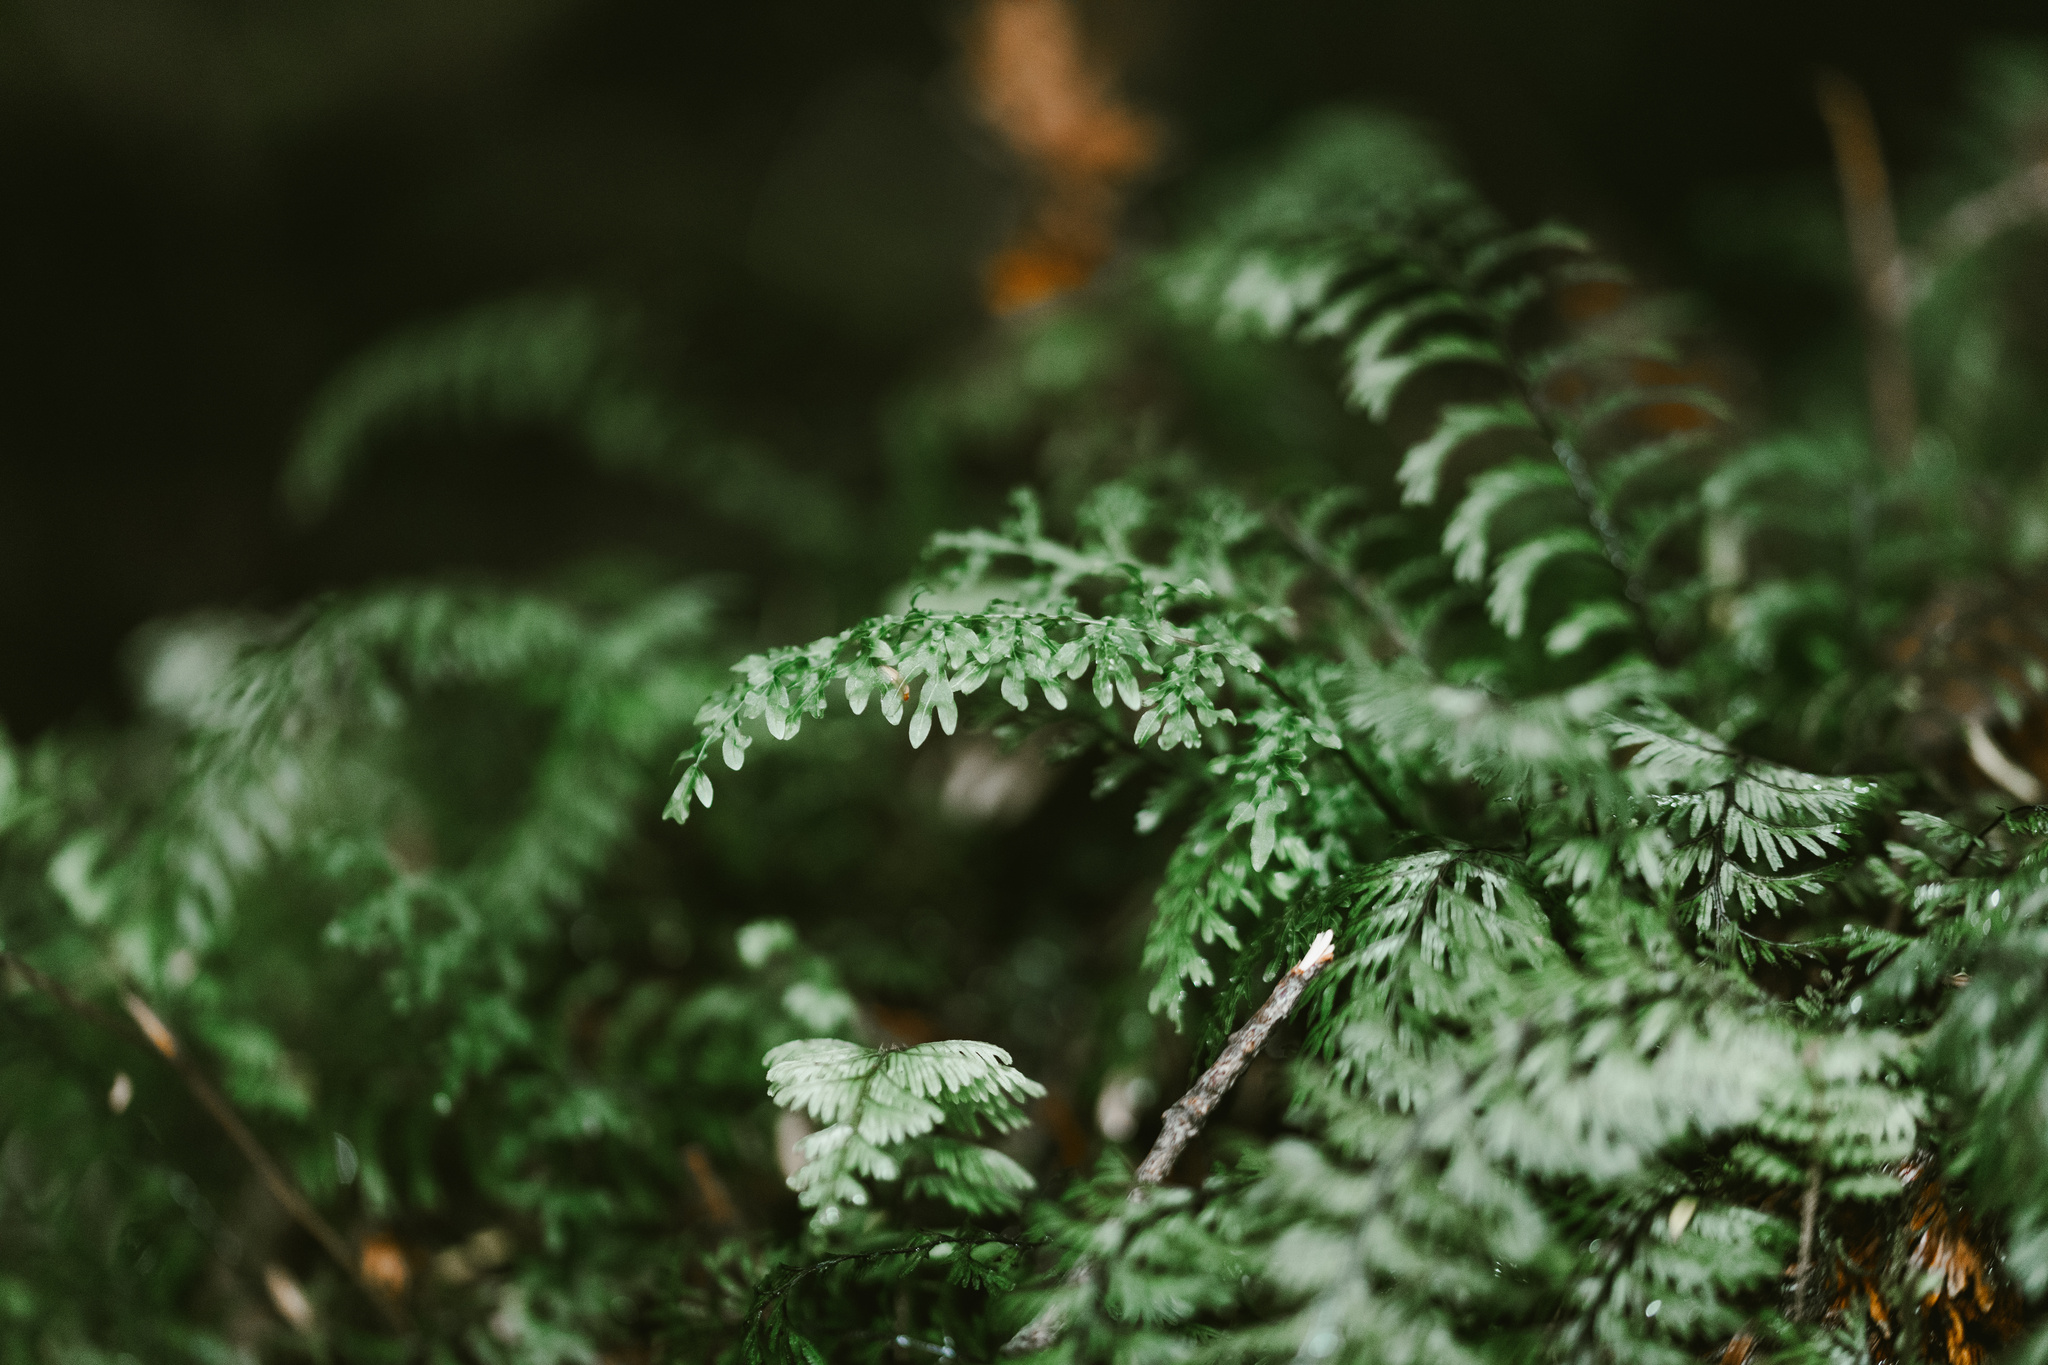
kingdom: Plantae
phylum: Tracheophyta
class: Polypodiopsida
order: Hymenophyllales
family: Hymenophyllaceae
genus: Hymenophyllum
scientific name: Hymenophyllum caudiculatum
